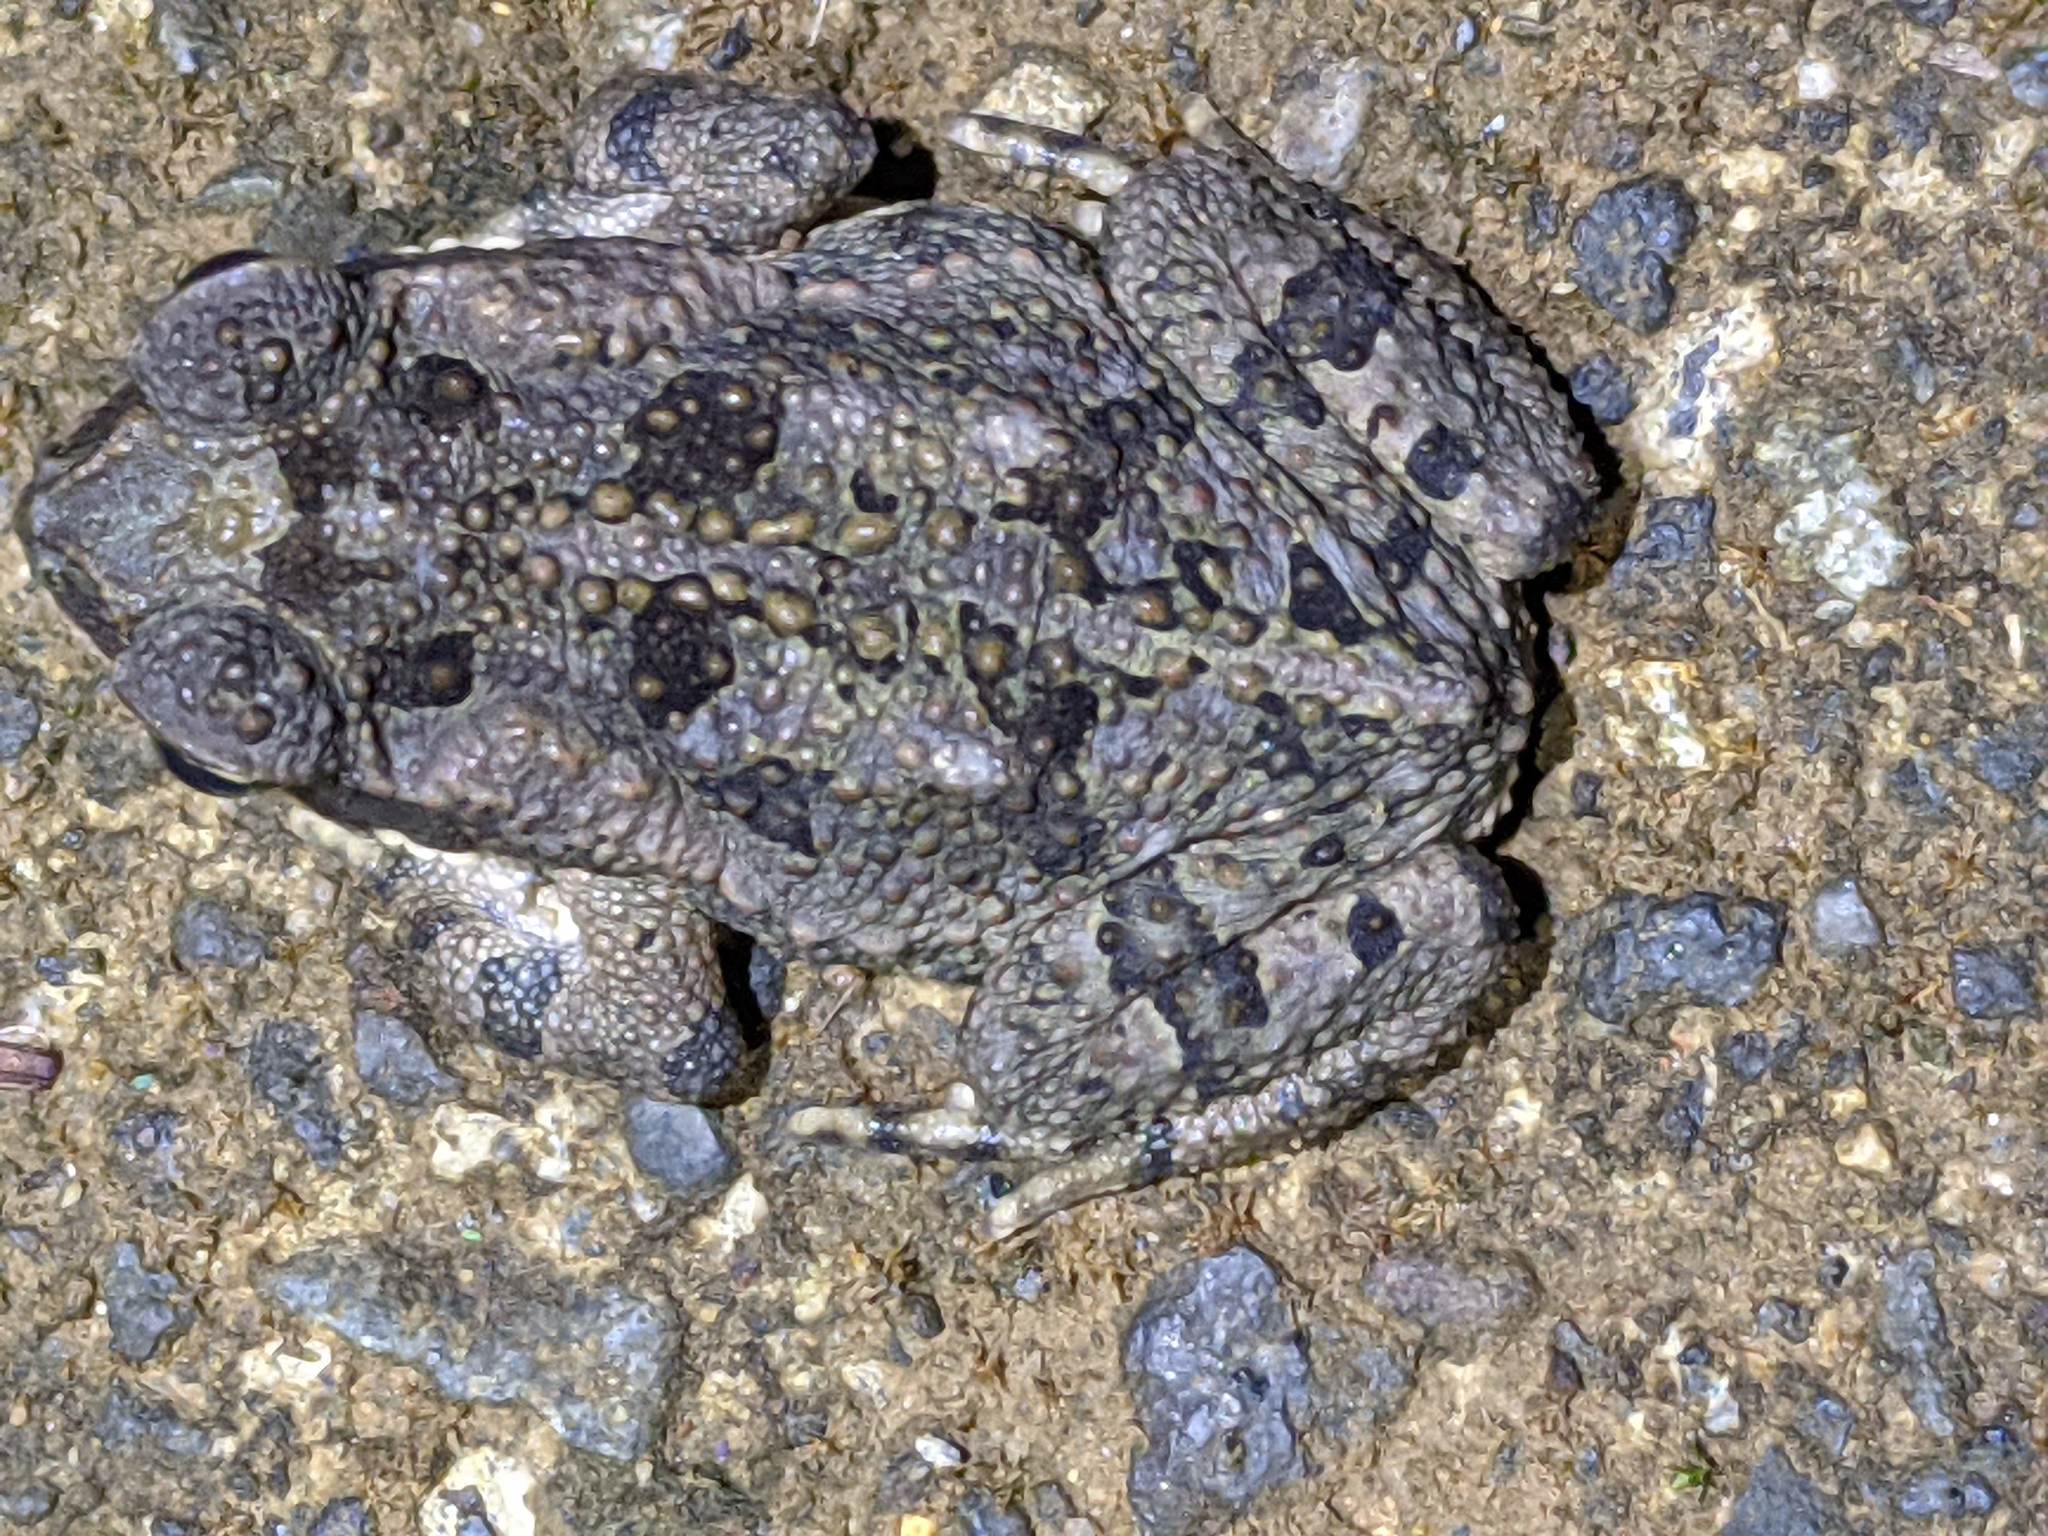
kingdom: Animalia
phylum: Chordata
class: Amphibia
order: Anura
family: Bufonidae
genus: Rhinella
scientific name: Rhinella horribilis
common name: Mesoamerican cane toad
